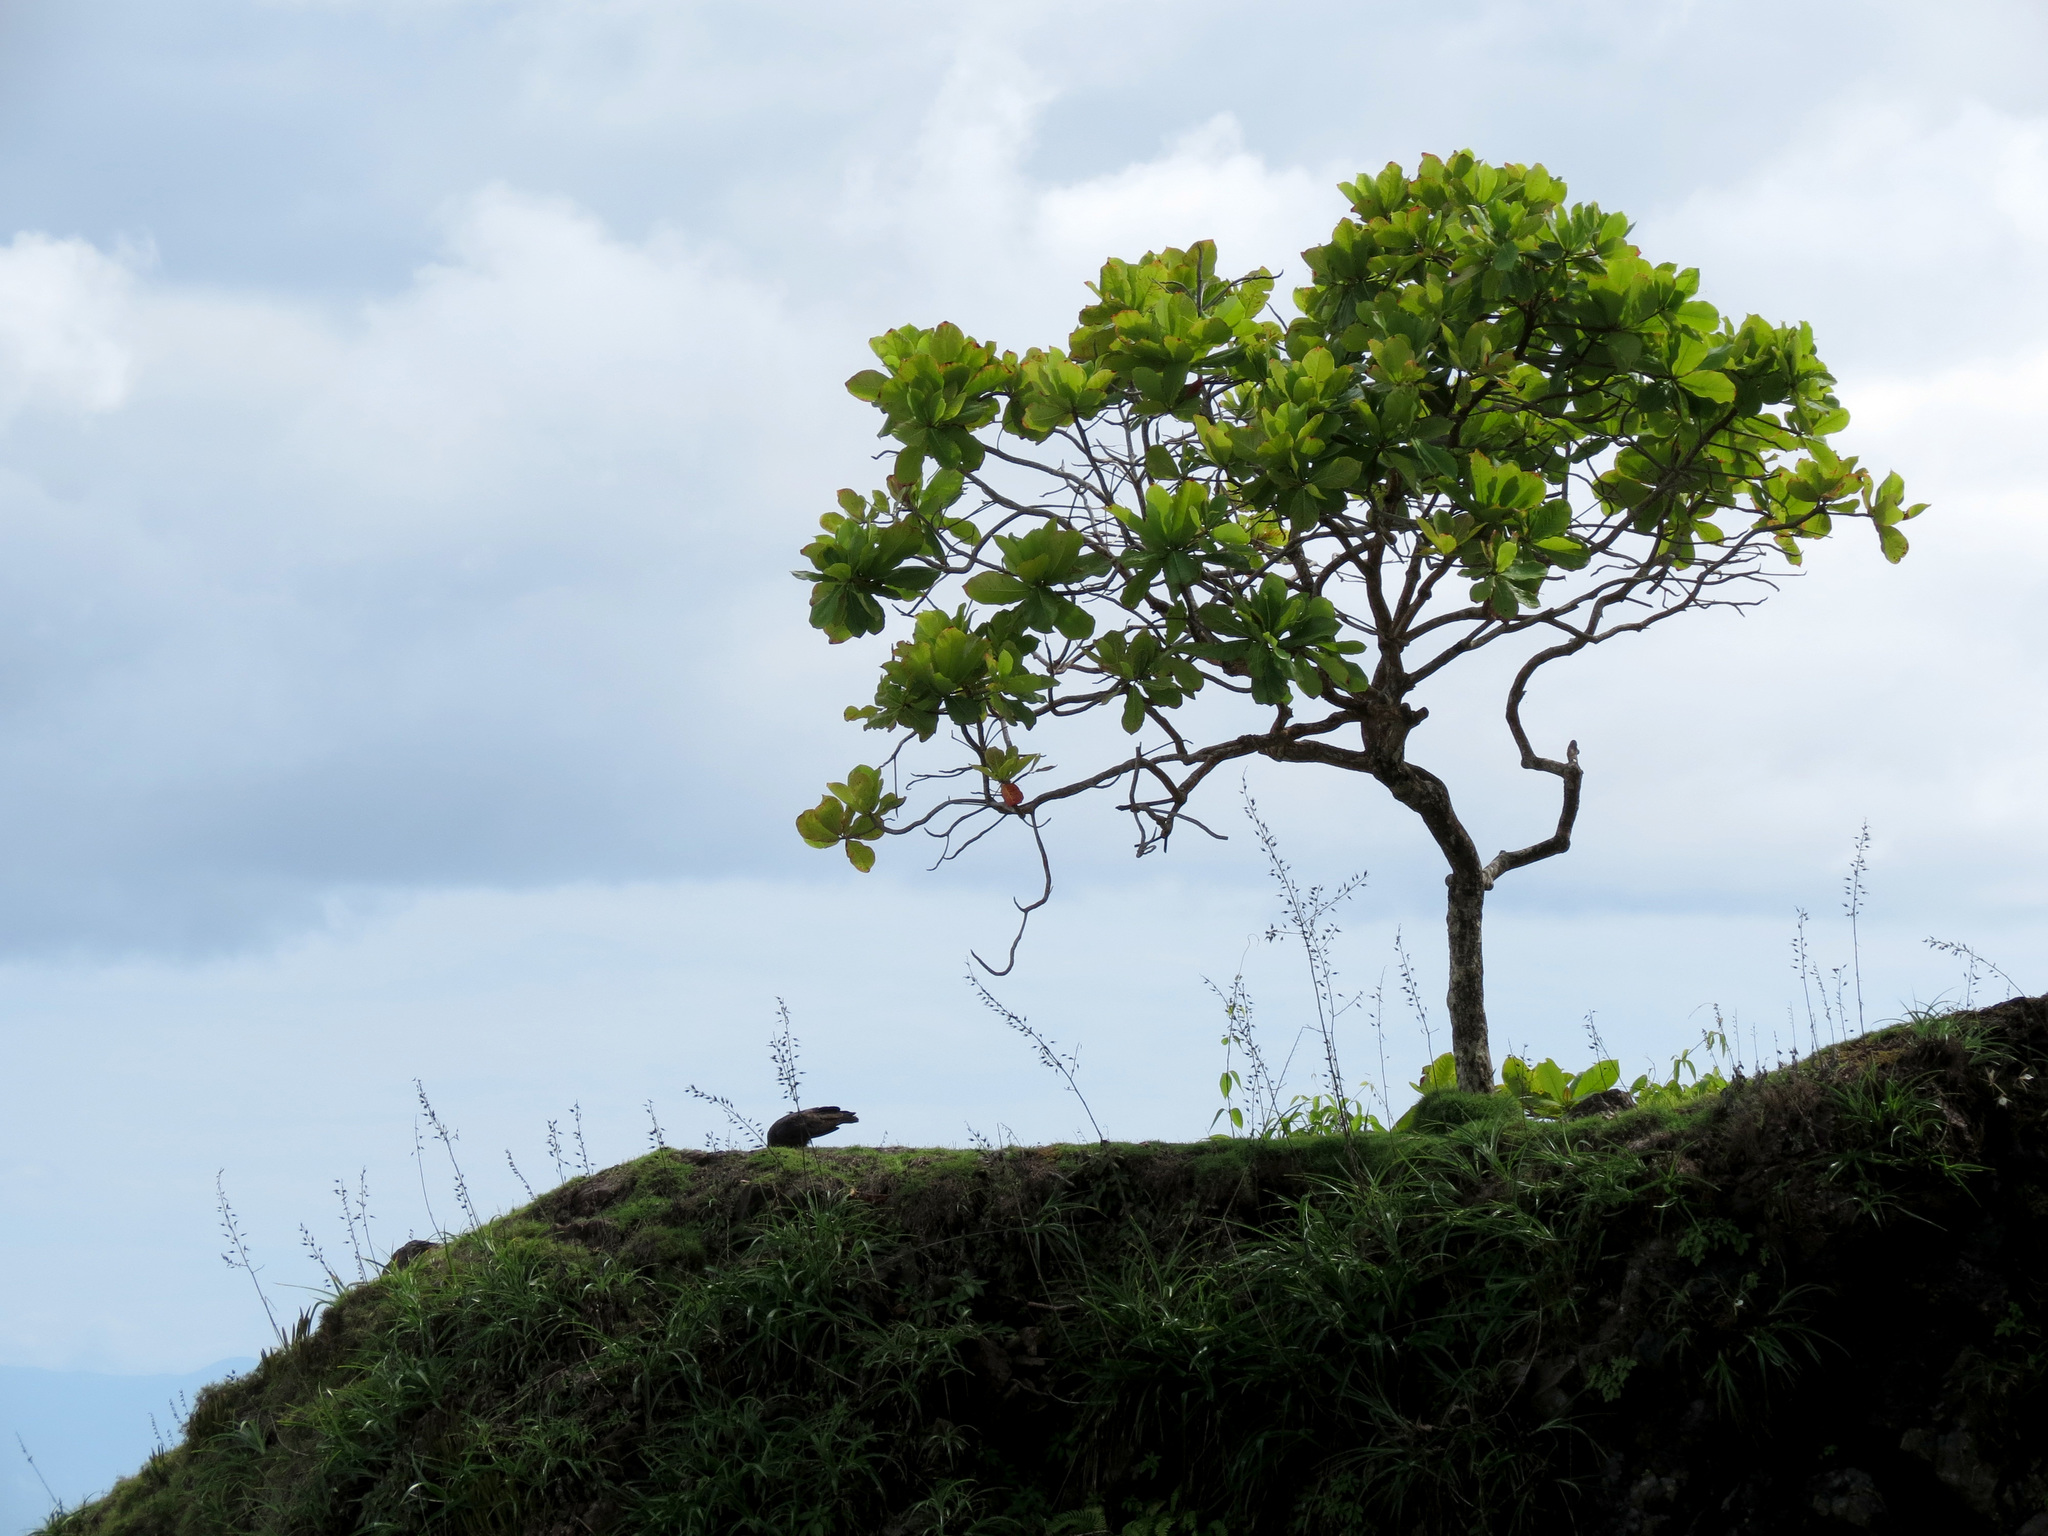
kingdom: Plantae
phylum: Tracheophyta
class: Magnoliopsida
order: Myrtales
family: Combretaceae
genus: Terminalia
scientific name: Terminalia catappa
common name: Tropical almond
